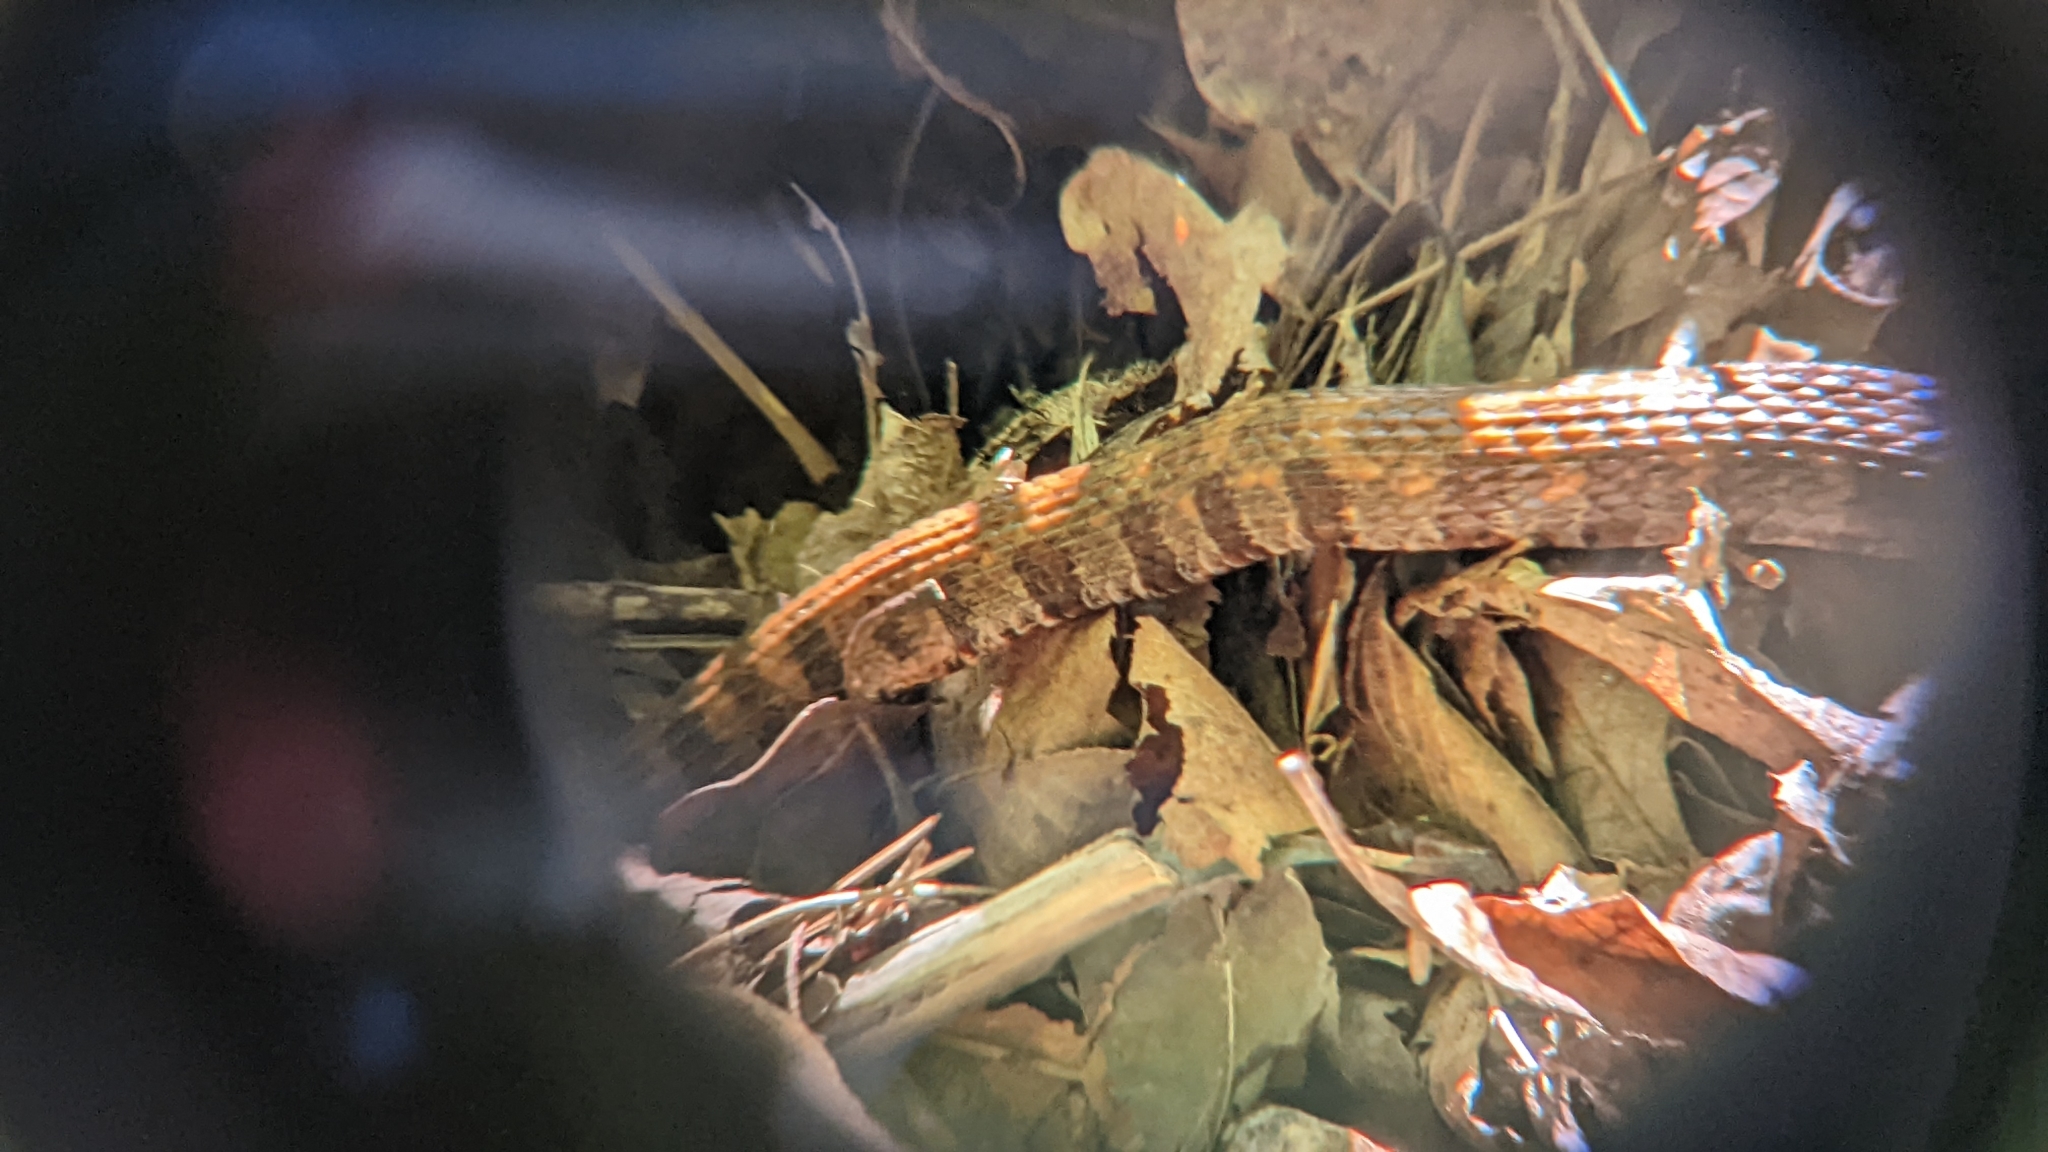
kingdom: Animalia
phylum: Chordata
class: Squamata
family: Colubridae
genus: Nerodia
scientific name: Nerodia sipedon
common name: Northern water snake
